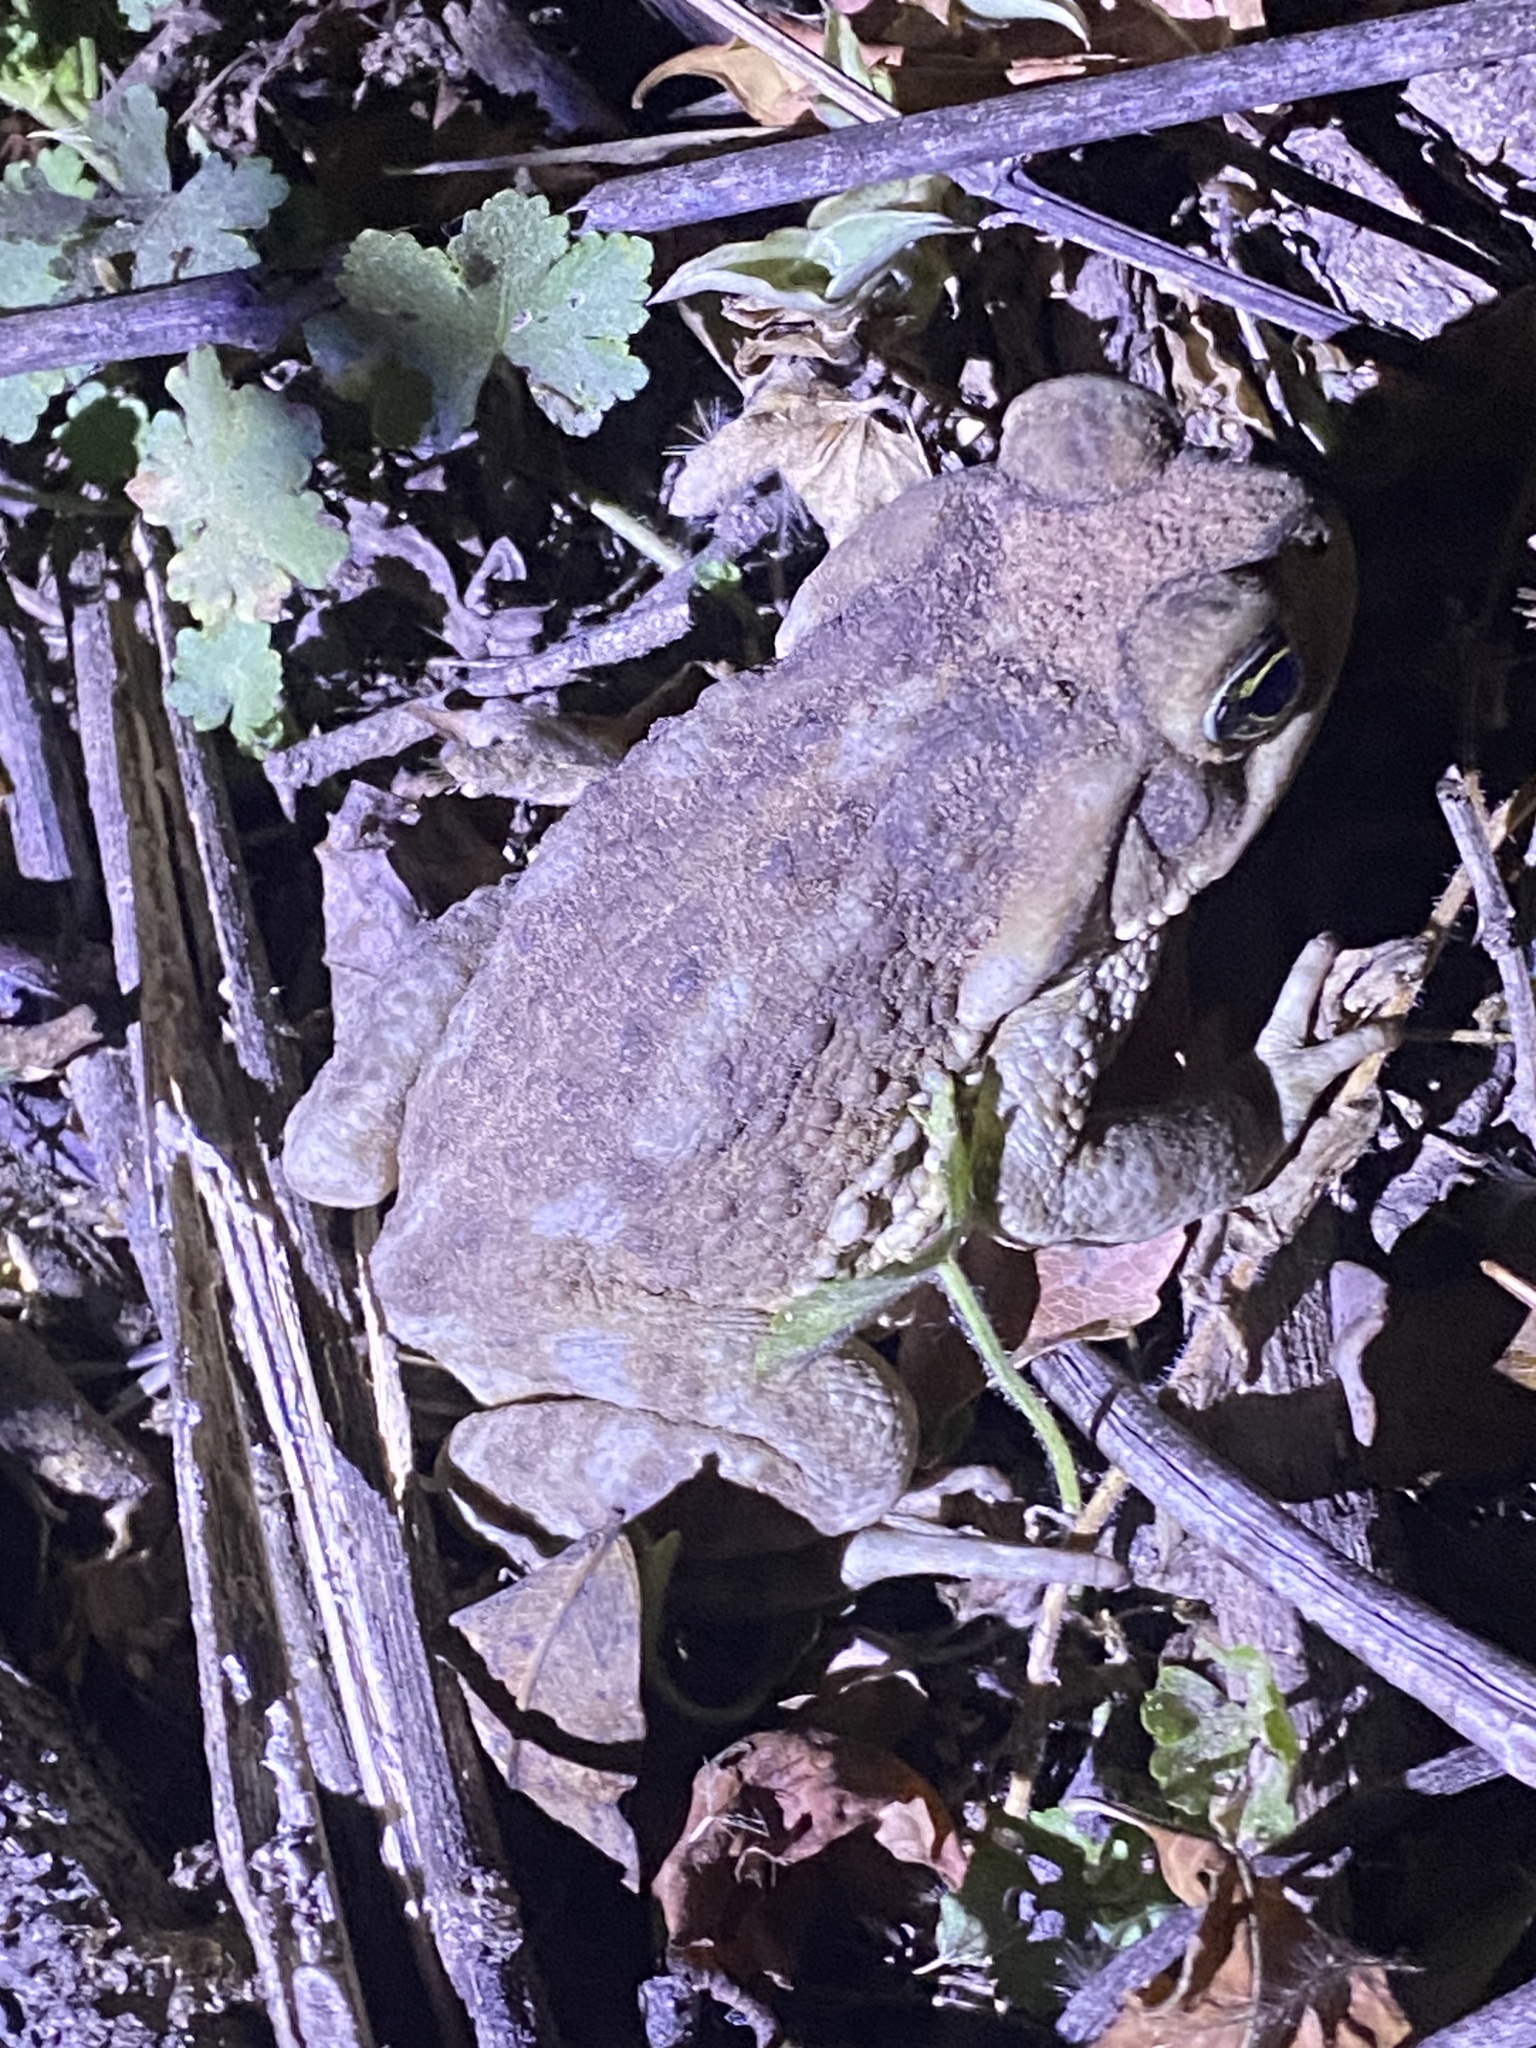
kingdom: Animalia
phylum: Chordata
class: Amphibia
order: Anura
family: Bufonidae
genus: Rhinella
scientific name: Rhinella arenarum
